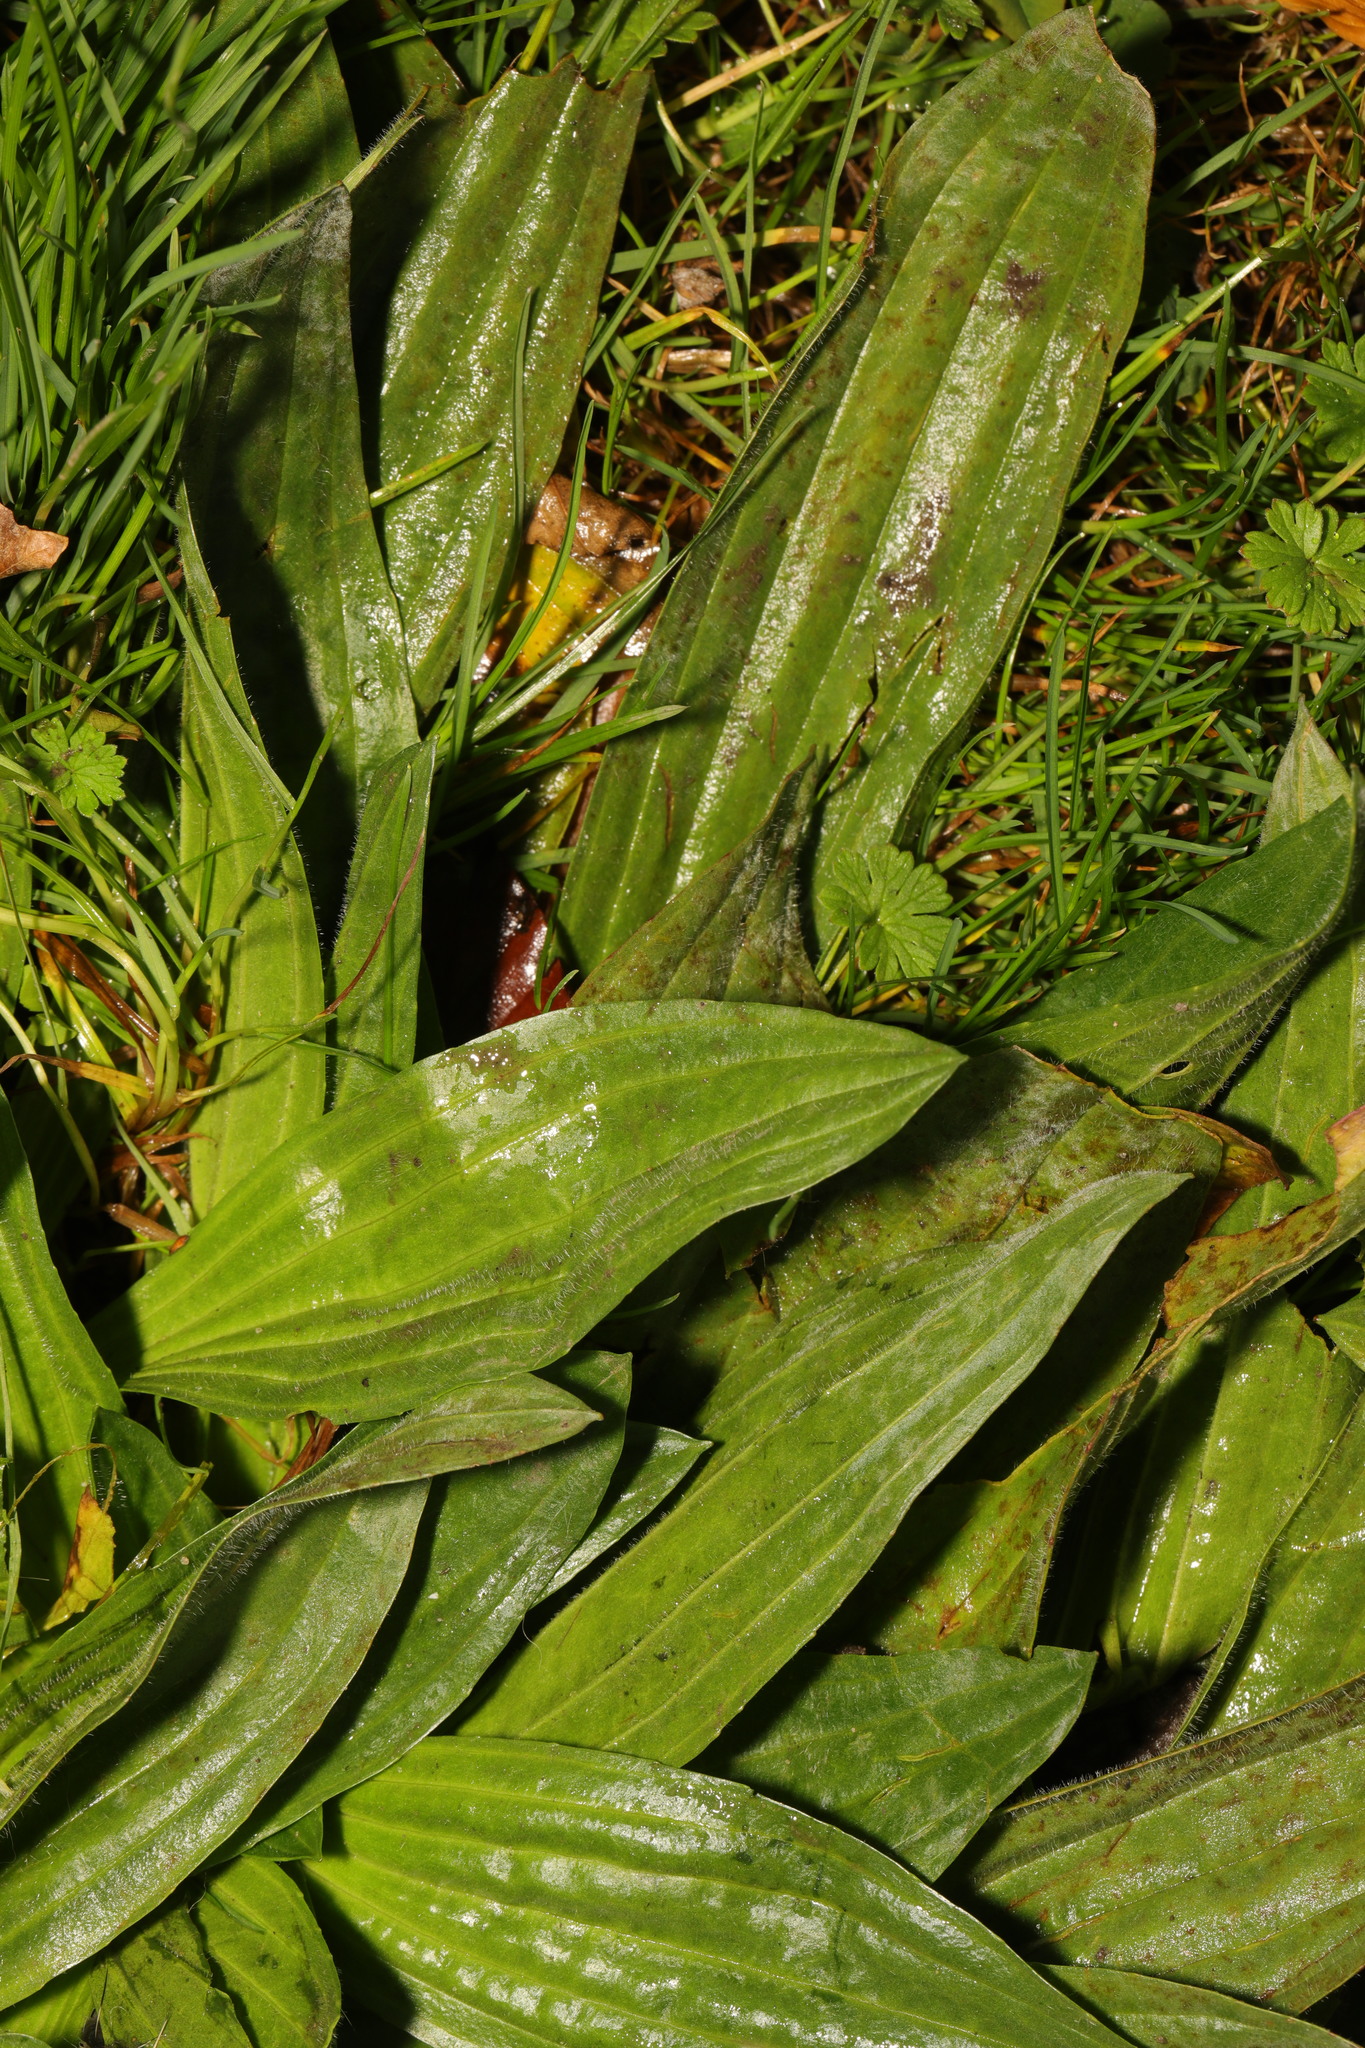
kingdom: Plantae
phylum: Tracheophyta
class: Magnoliopsida
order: Lamiales
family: Plantaginaceae
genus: Plantago
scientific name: Plantago lanceolata
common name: Ribwort plantain
